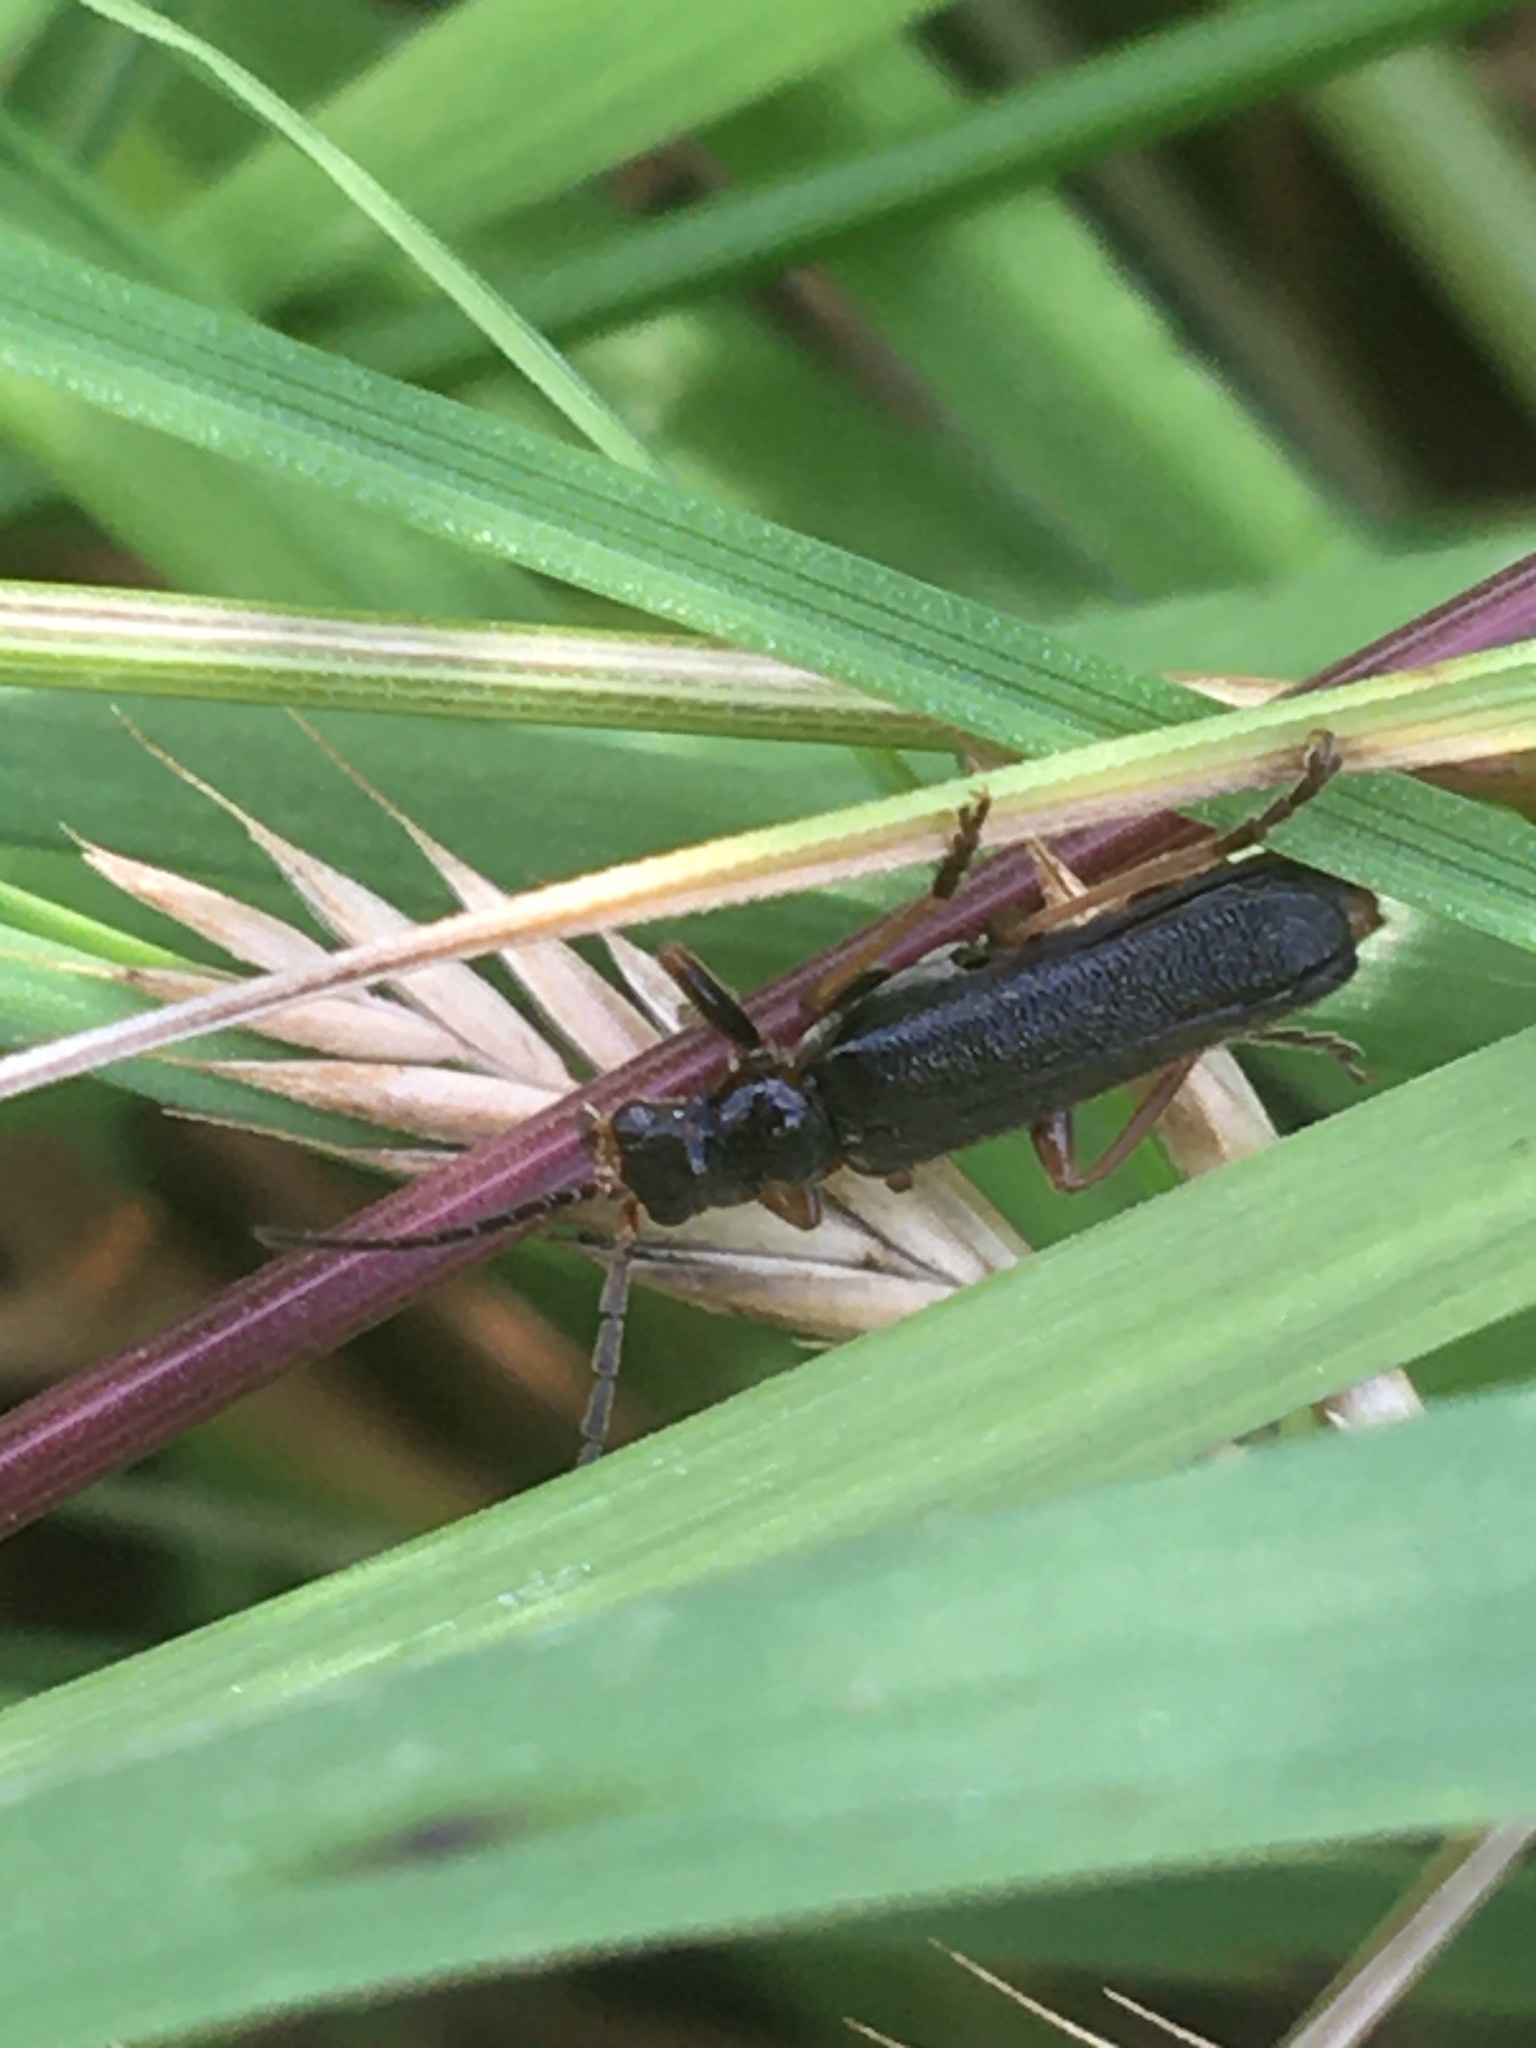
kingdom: Animalia
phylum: Arthropoda
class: Insecta
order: Coleoptera
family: Cantharidae
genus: Cantharis
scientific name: Cantharis flavilabris
